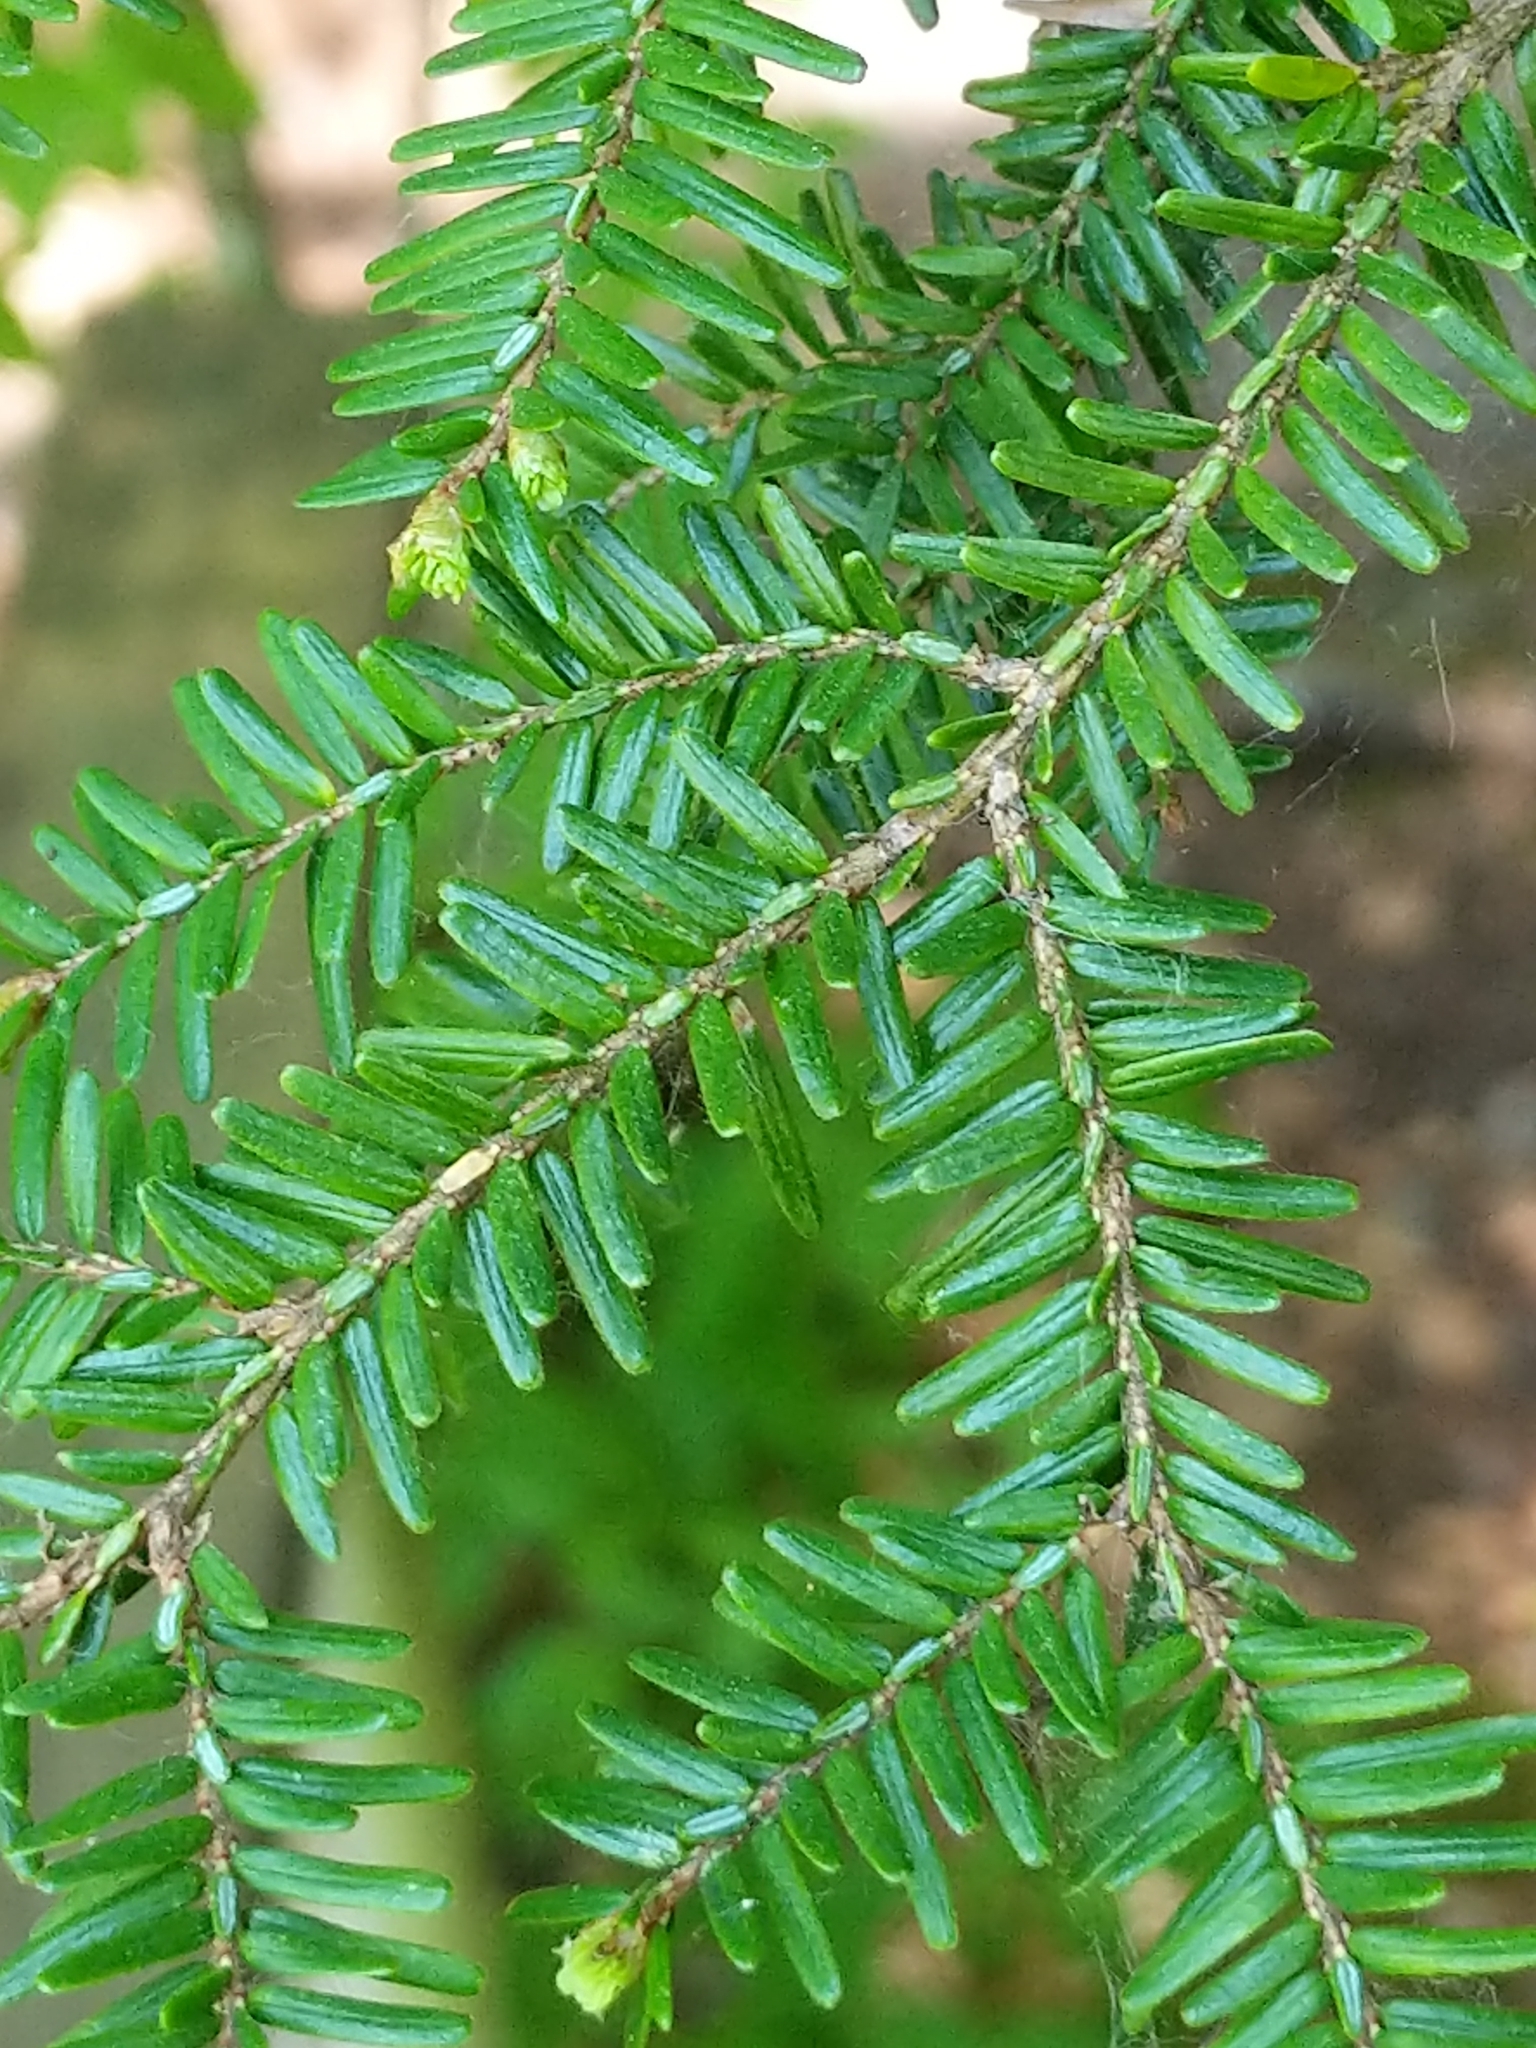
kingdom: Plantae
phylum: Tracheophyta
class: Pinopsida
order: Pinales
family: Pinaceae
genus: Tsuga
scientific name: Tsuga canadensis
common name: Eastern hemlock
